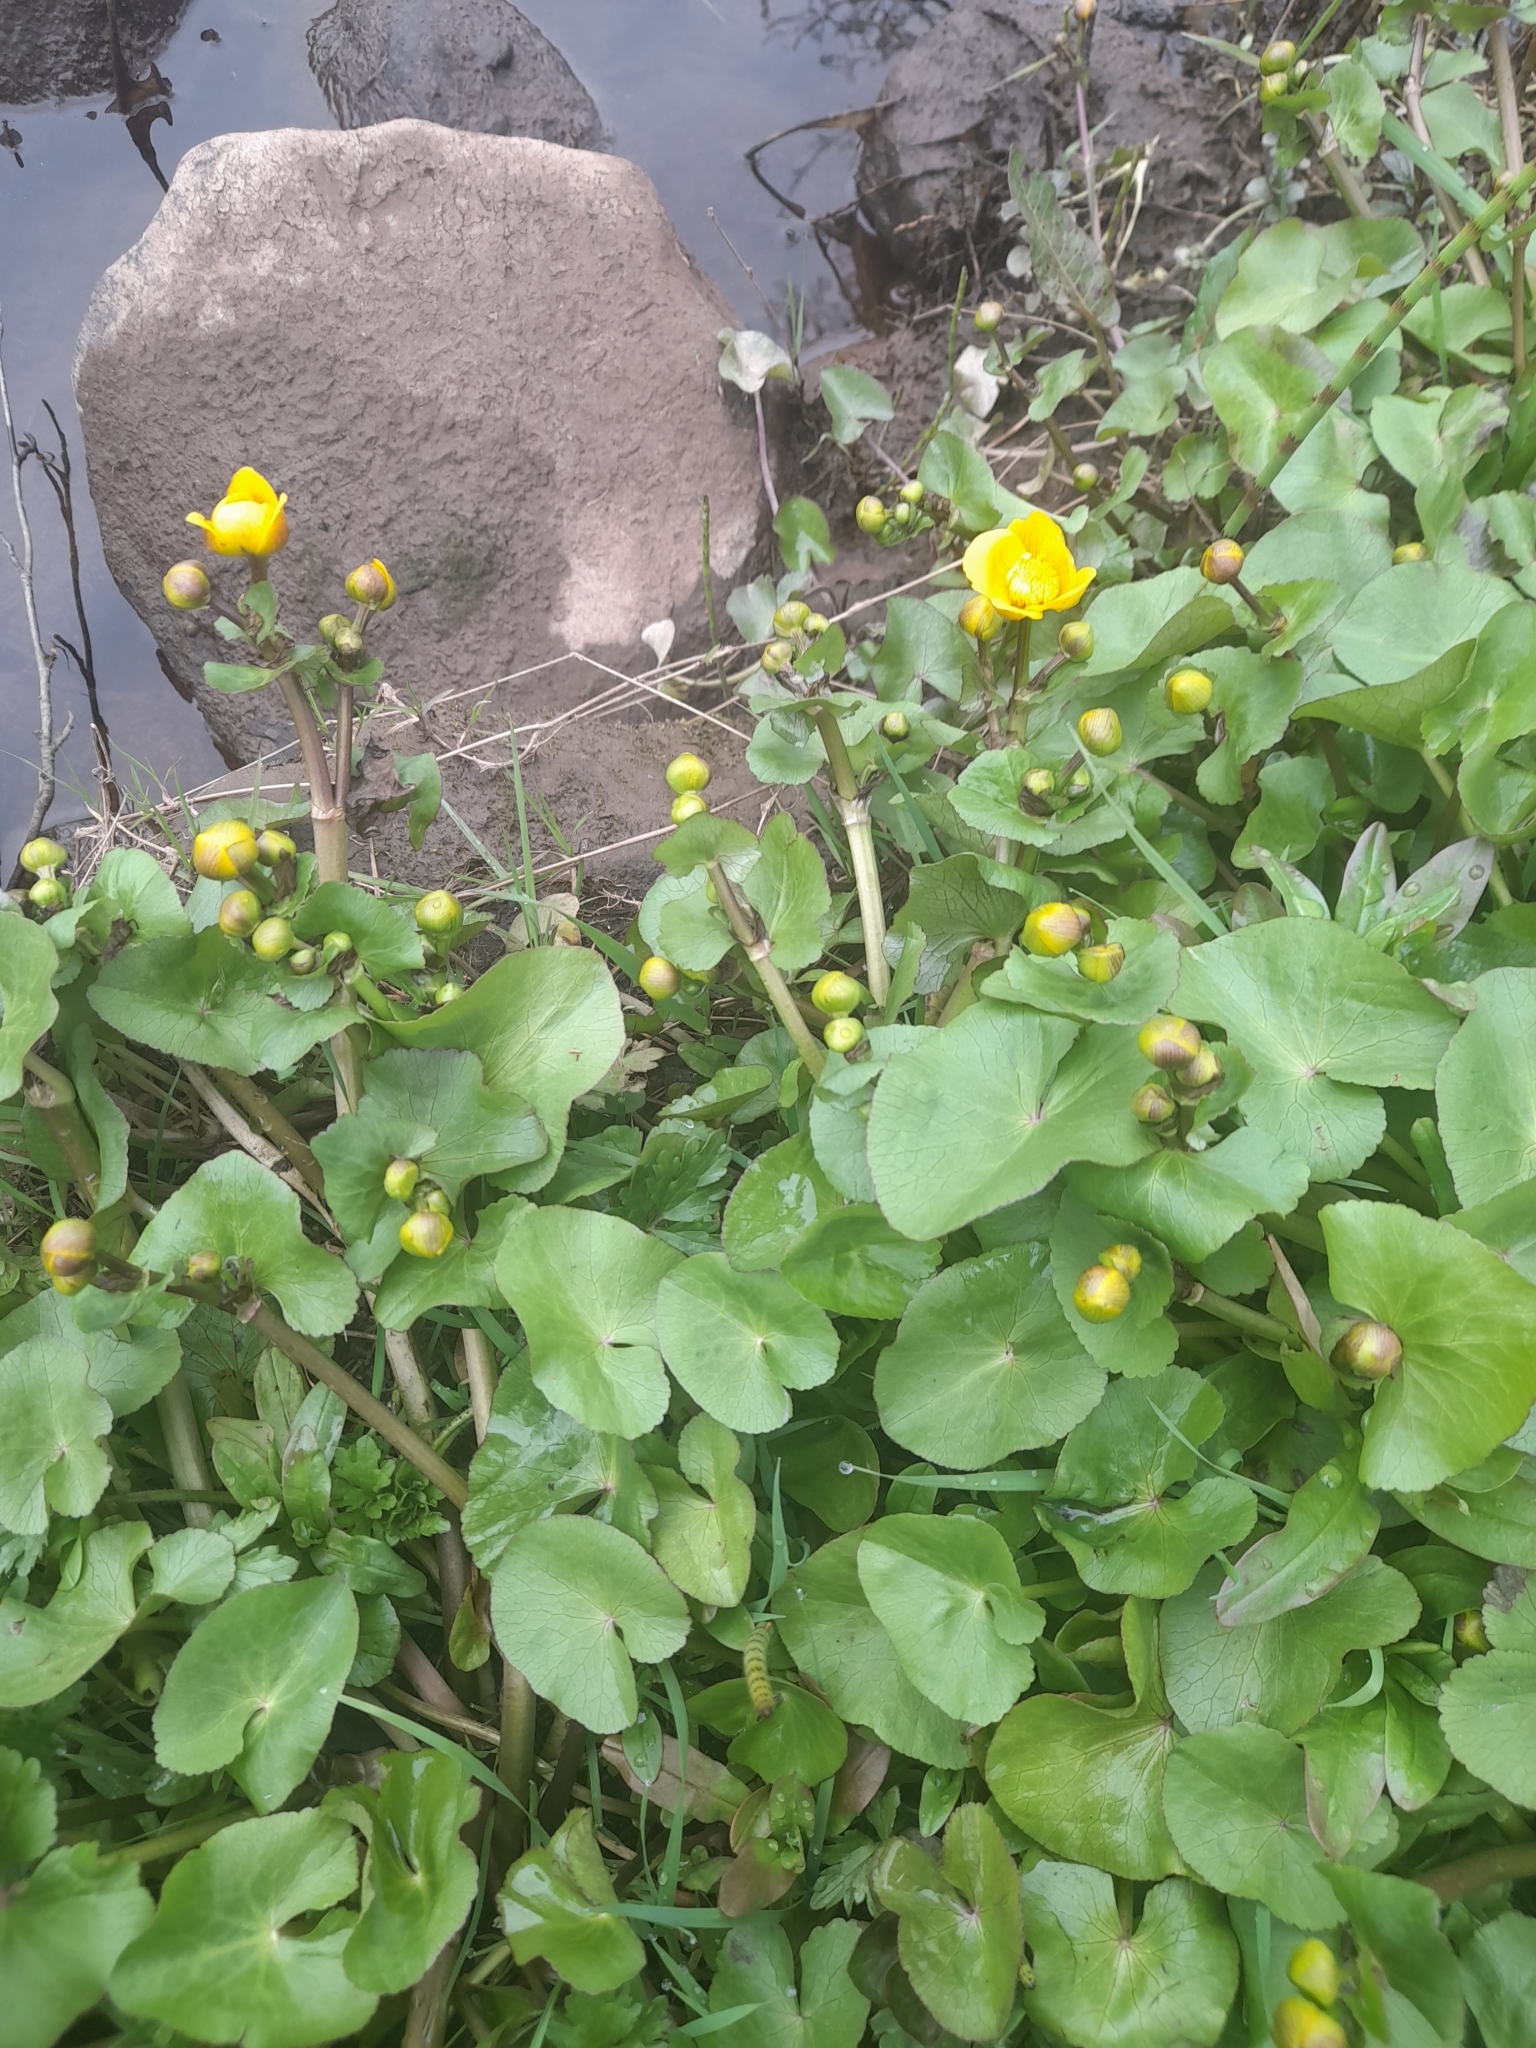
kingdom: Plantae
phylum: Tracheophyta
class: Magnoliopsida
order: Ranunculales
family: Ranunculaceae
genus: Caltha
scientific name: Caltha palustris
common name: Marsh marigold
